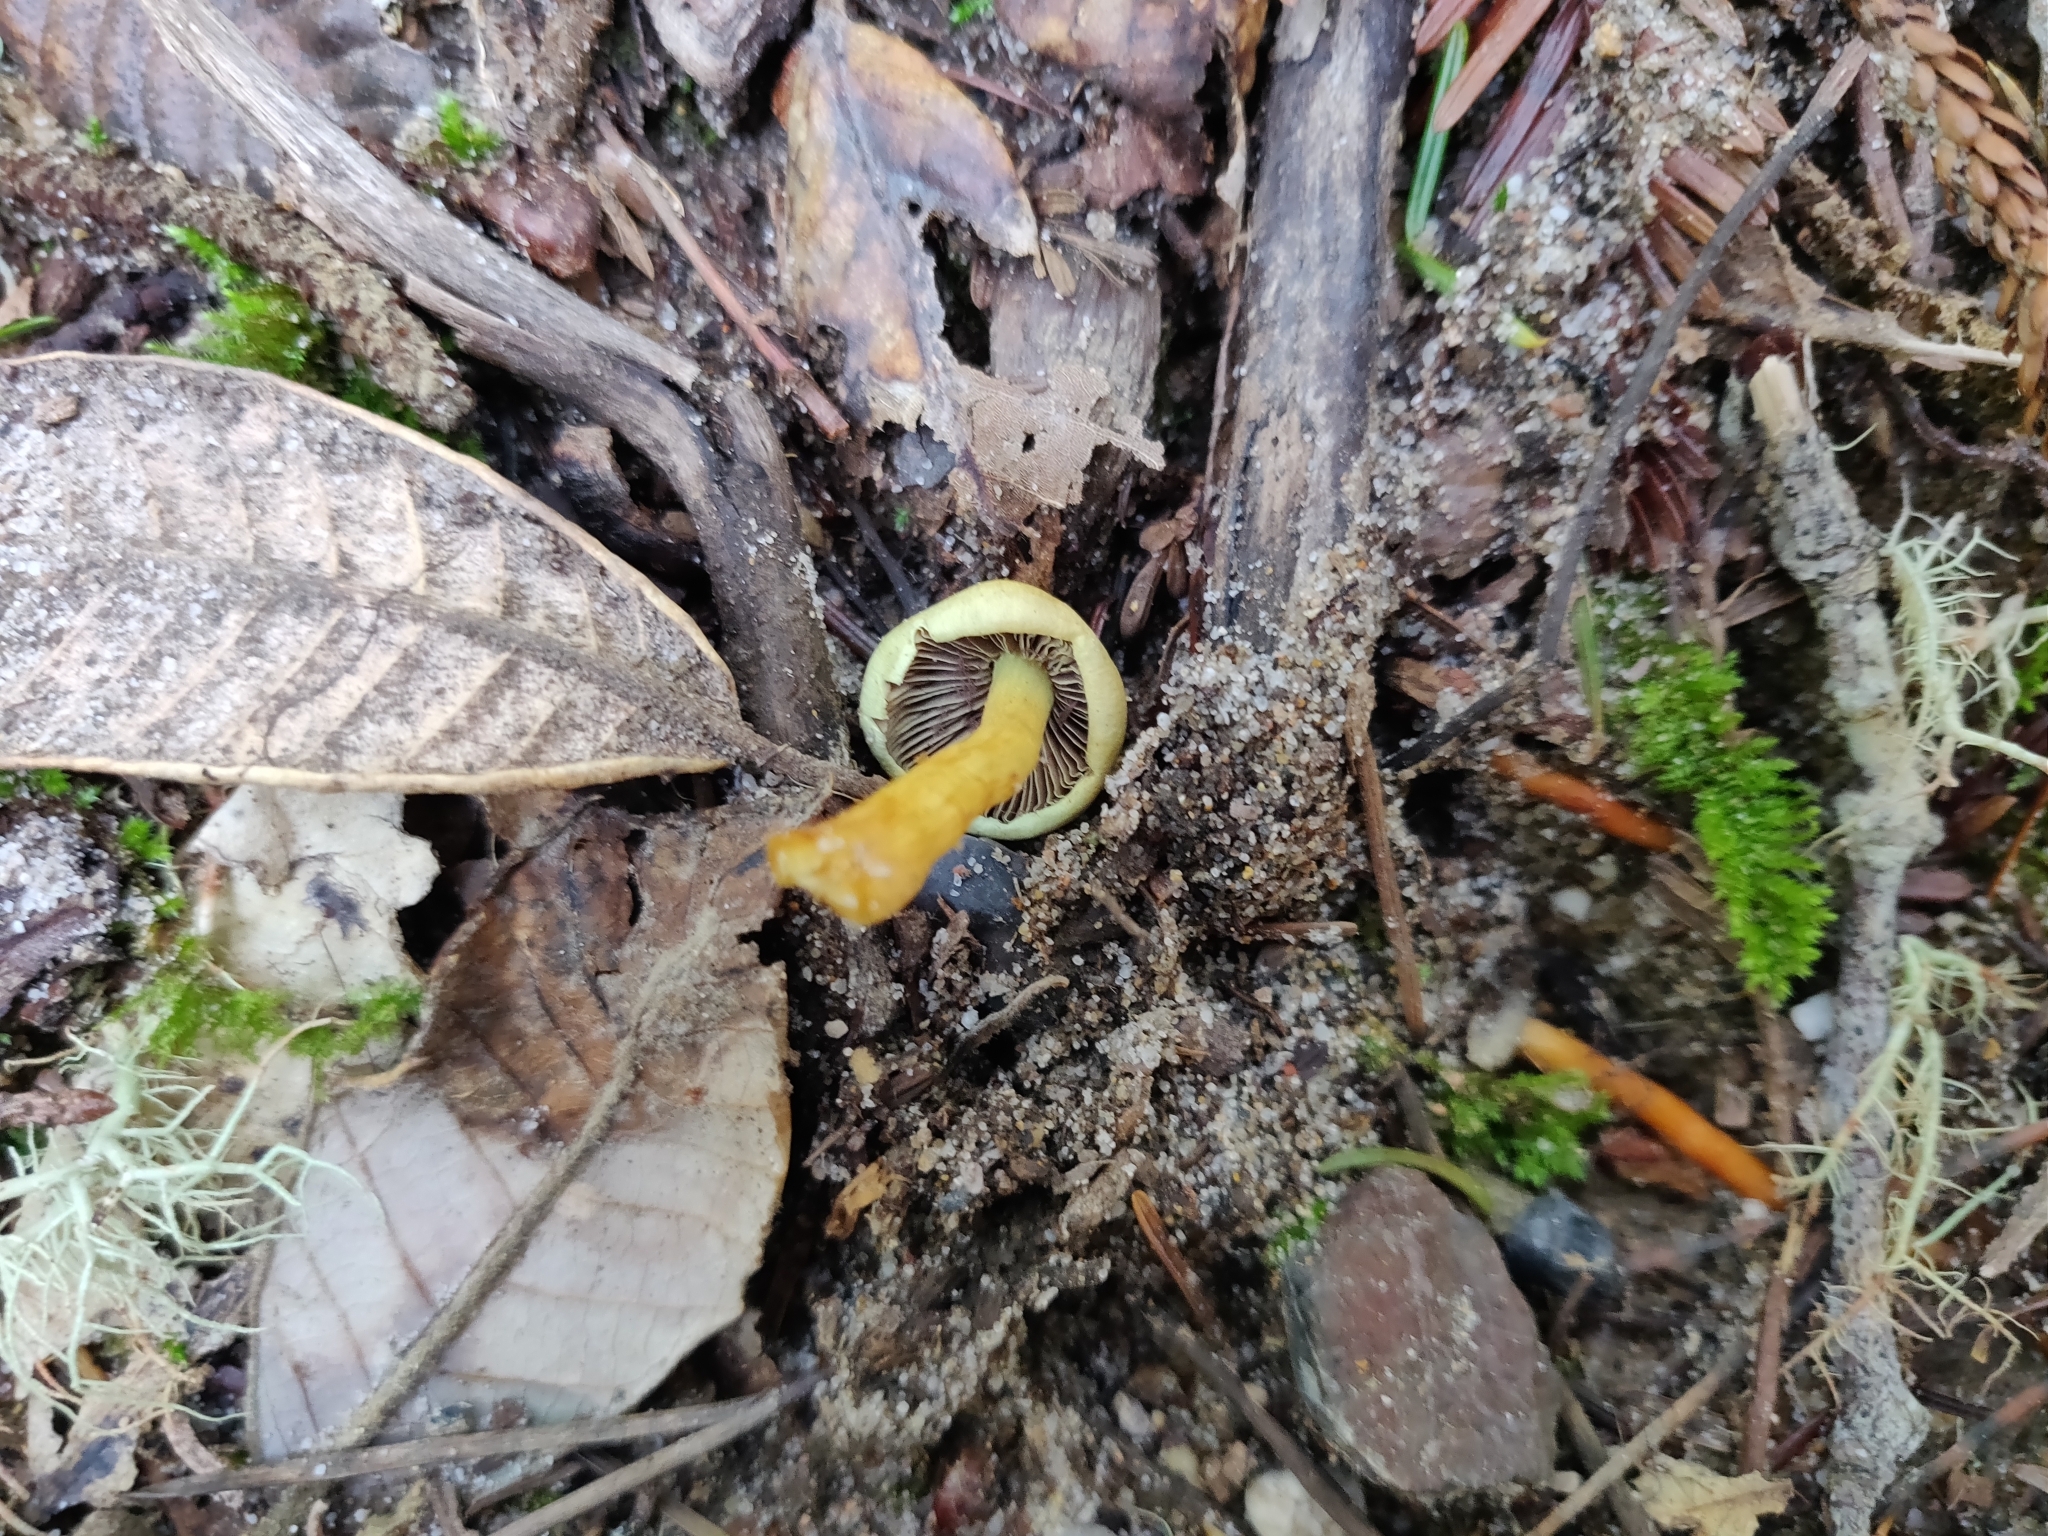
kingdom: Fungi
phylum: Basidiomycota
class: Agaricomycetes
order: Agaricales
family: Strophariaceae
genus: Hypholoma
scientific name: Hypholoma fasciculare
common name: Sulphur tuft
